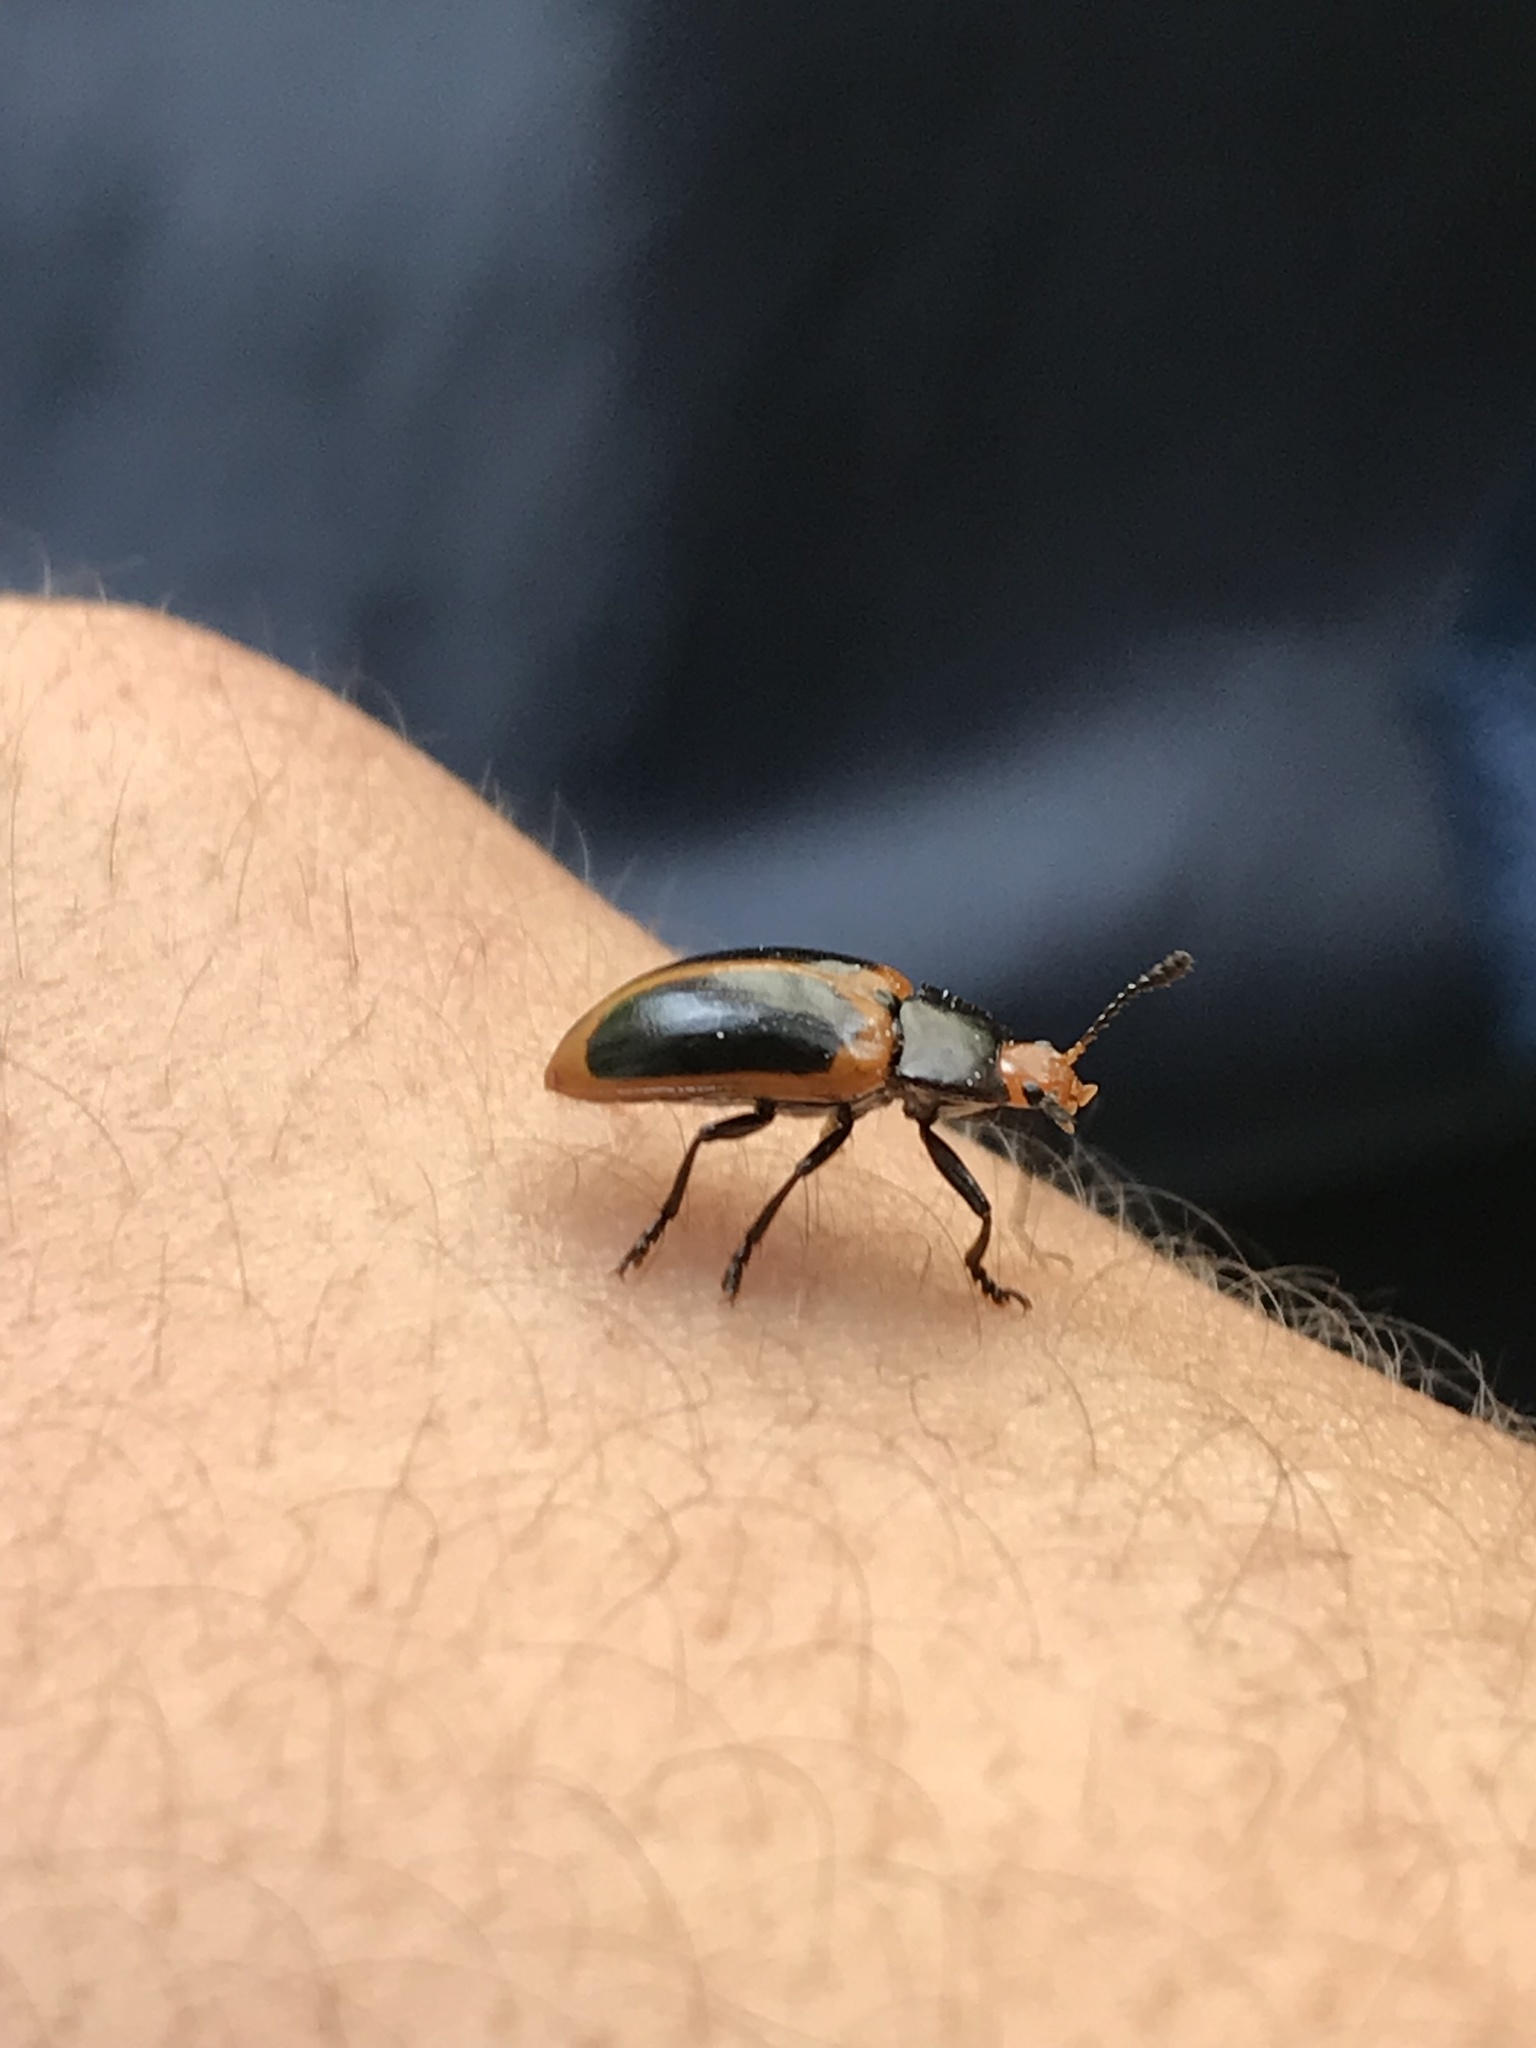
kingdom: Animalia
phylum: Arthropoda
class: Insecta
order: Coleoptera
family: Erotylidae
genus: Iphiclus
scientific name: Iphiclus
